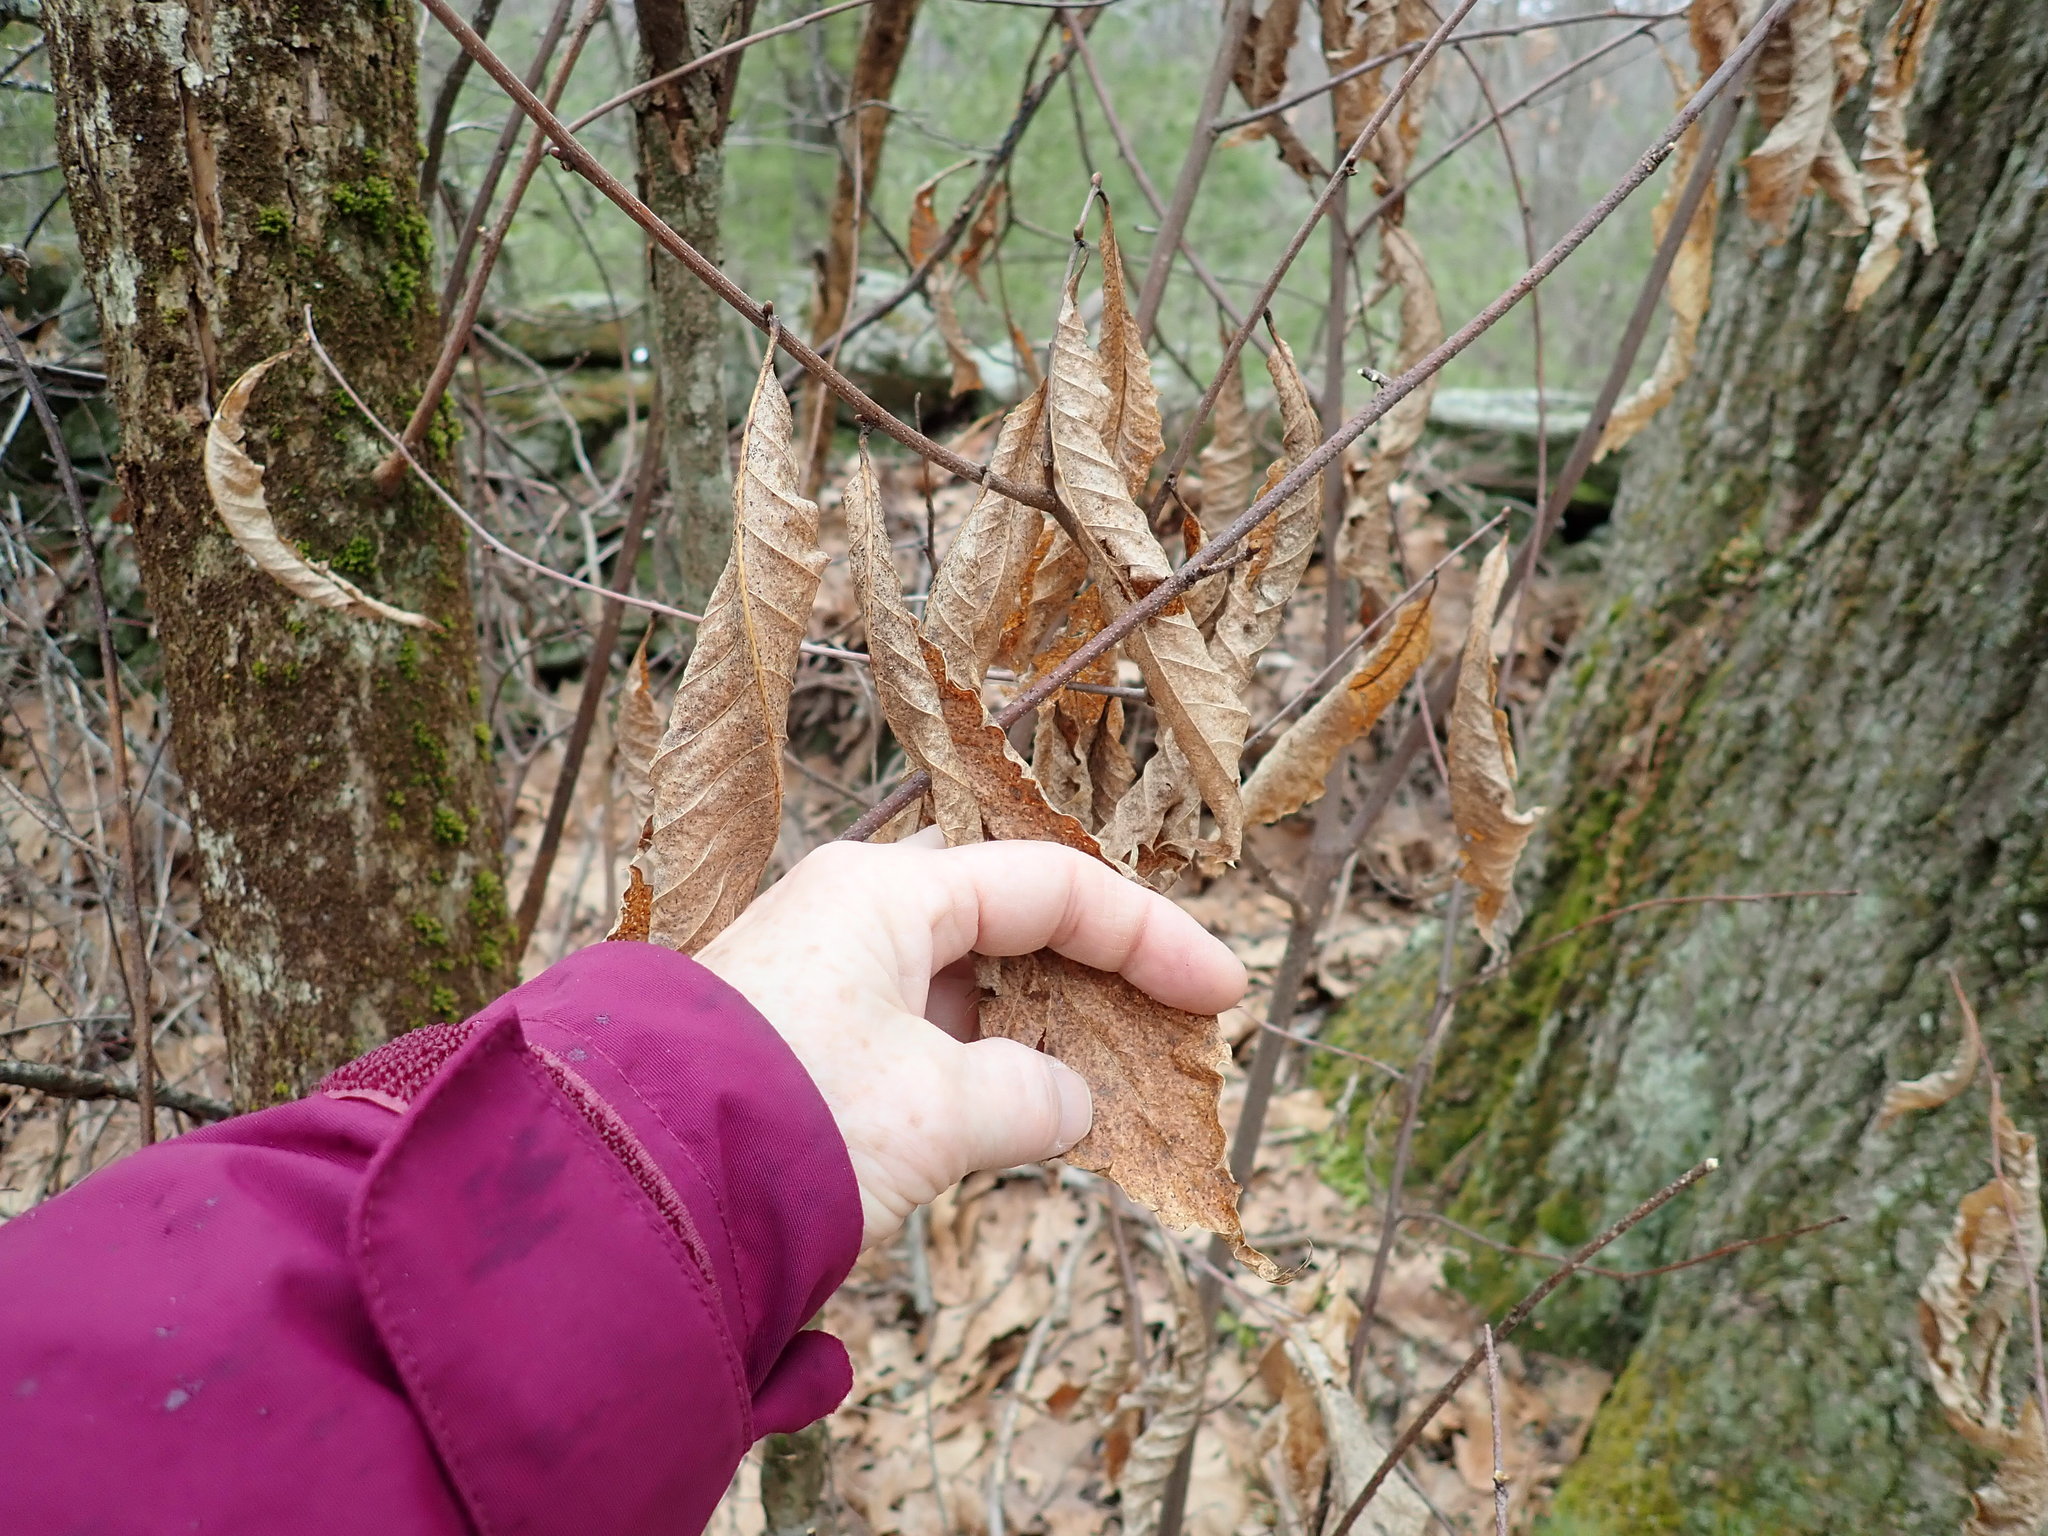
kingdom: Plantae
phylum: Tracheophyta
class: Magnoliopsida
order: Fagales
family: Fagaceae
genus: Castanea
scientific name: Castanea dentata
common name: American chestnut
